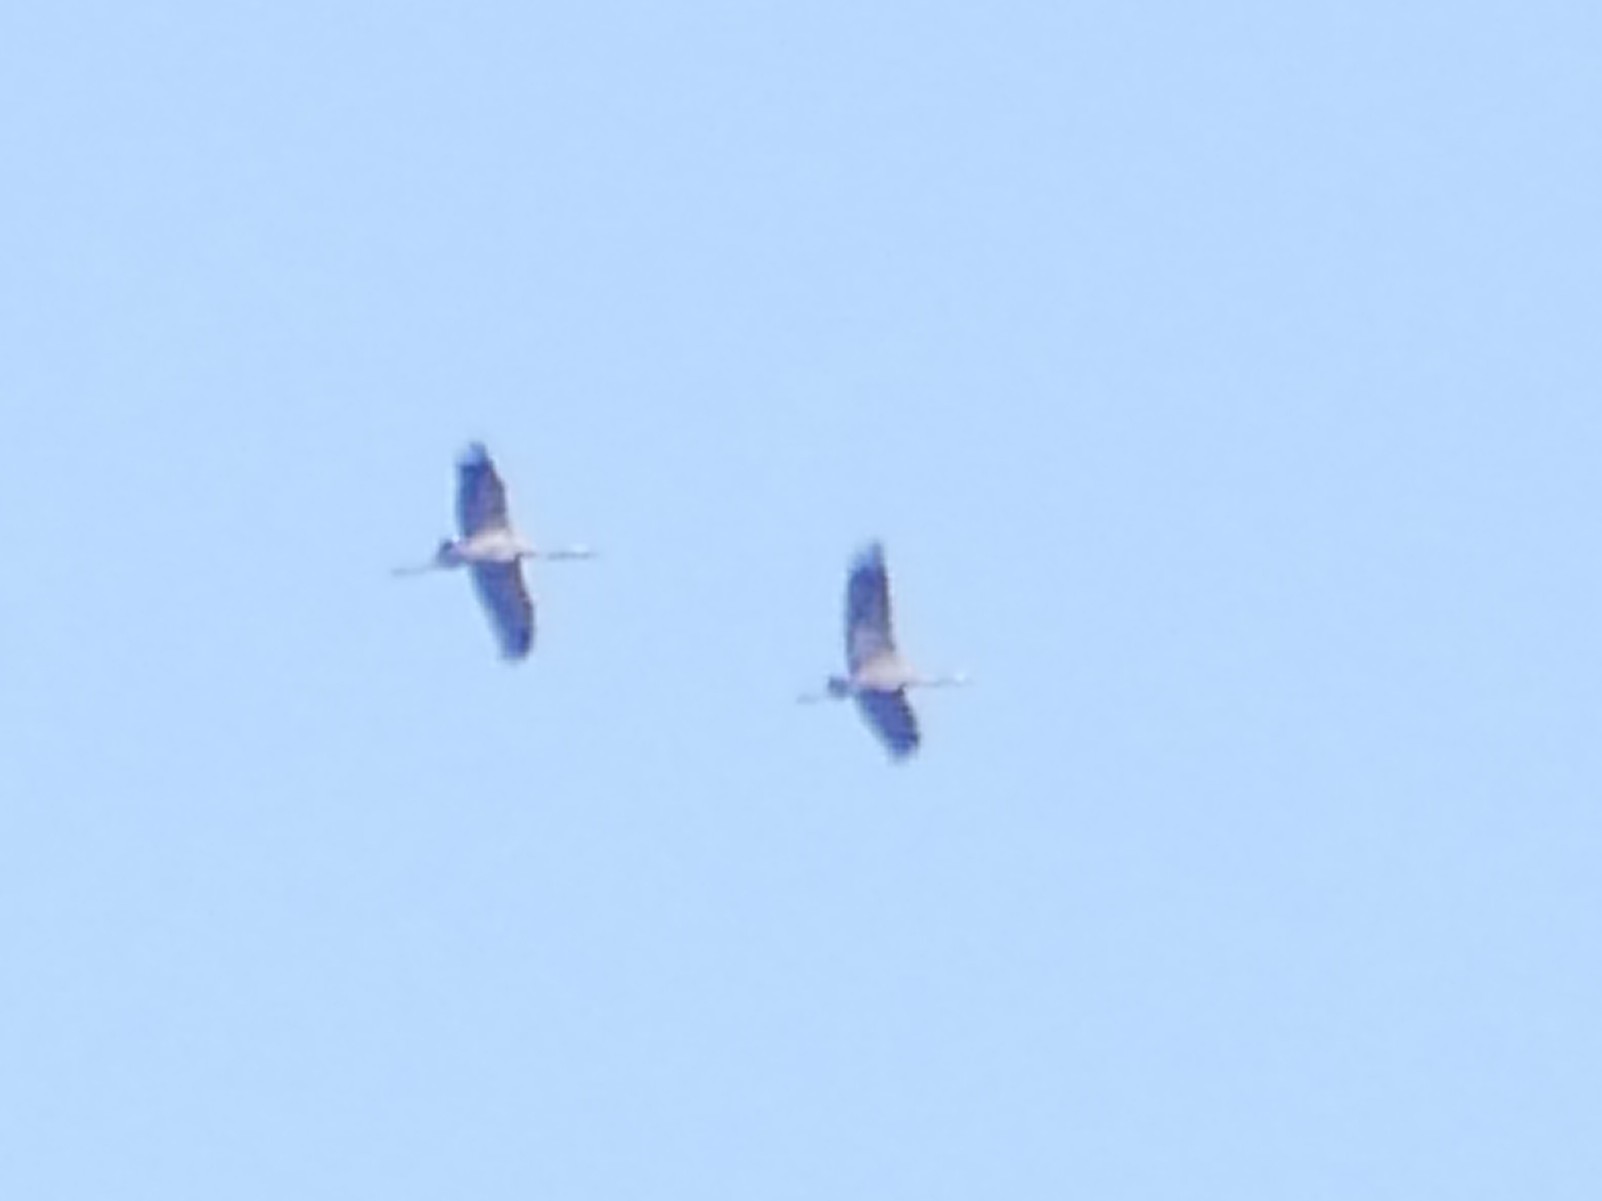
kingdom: Animalia
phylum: Chordata
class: Aves
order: Gruiformes
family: Gruidae
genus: Grus
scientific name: Grus grus
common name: Common crane
